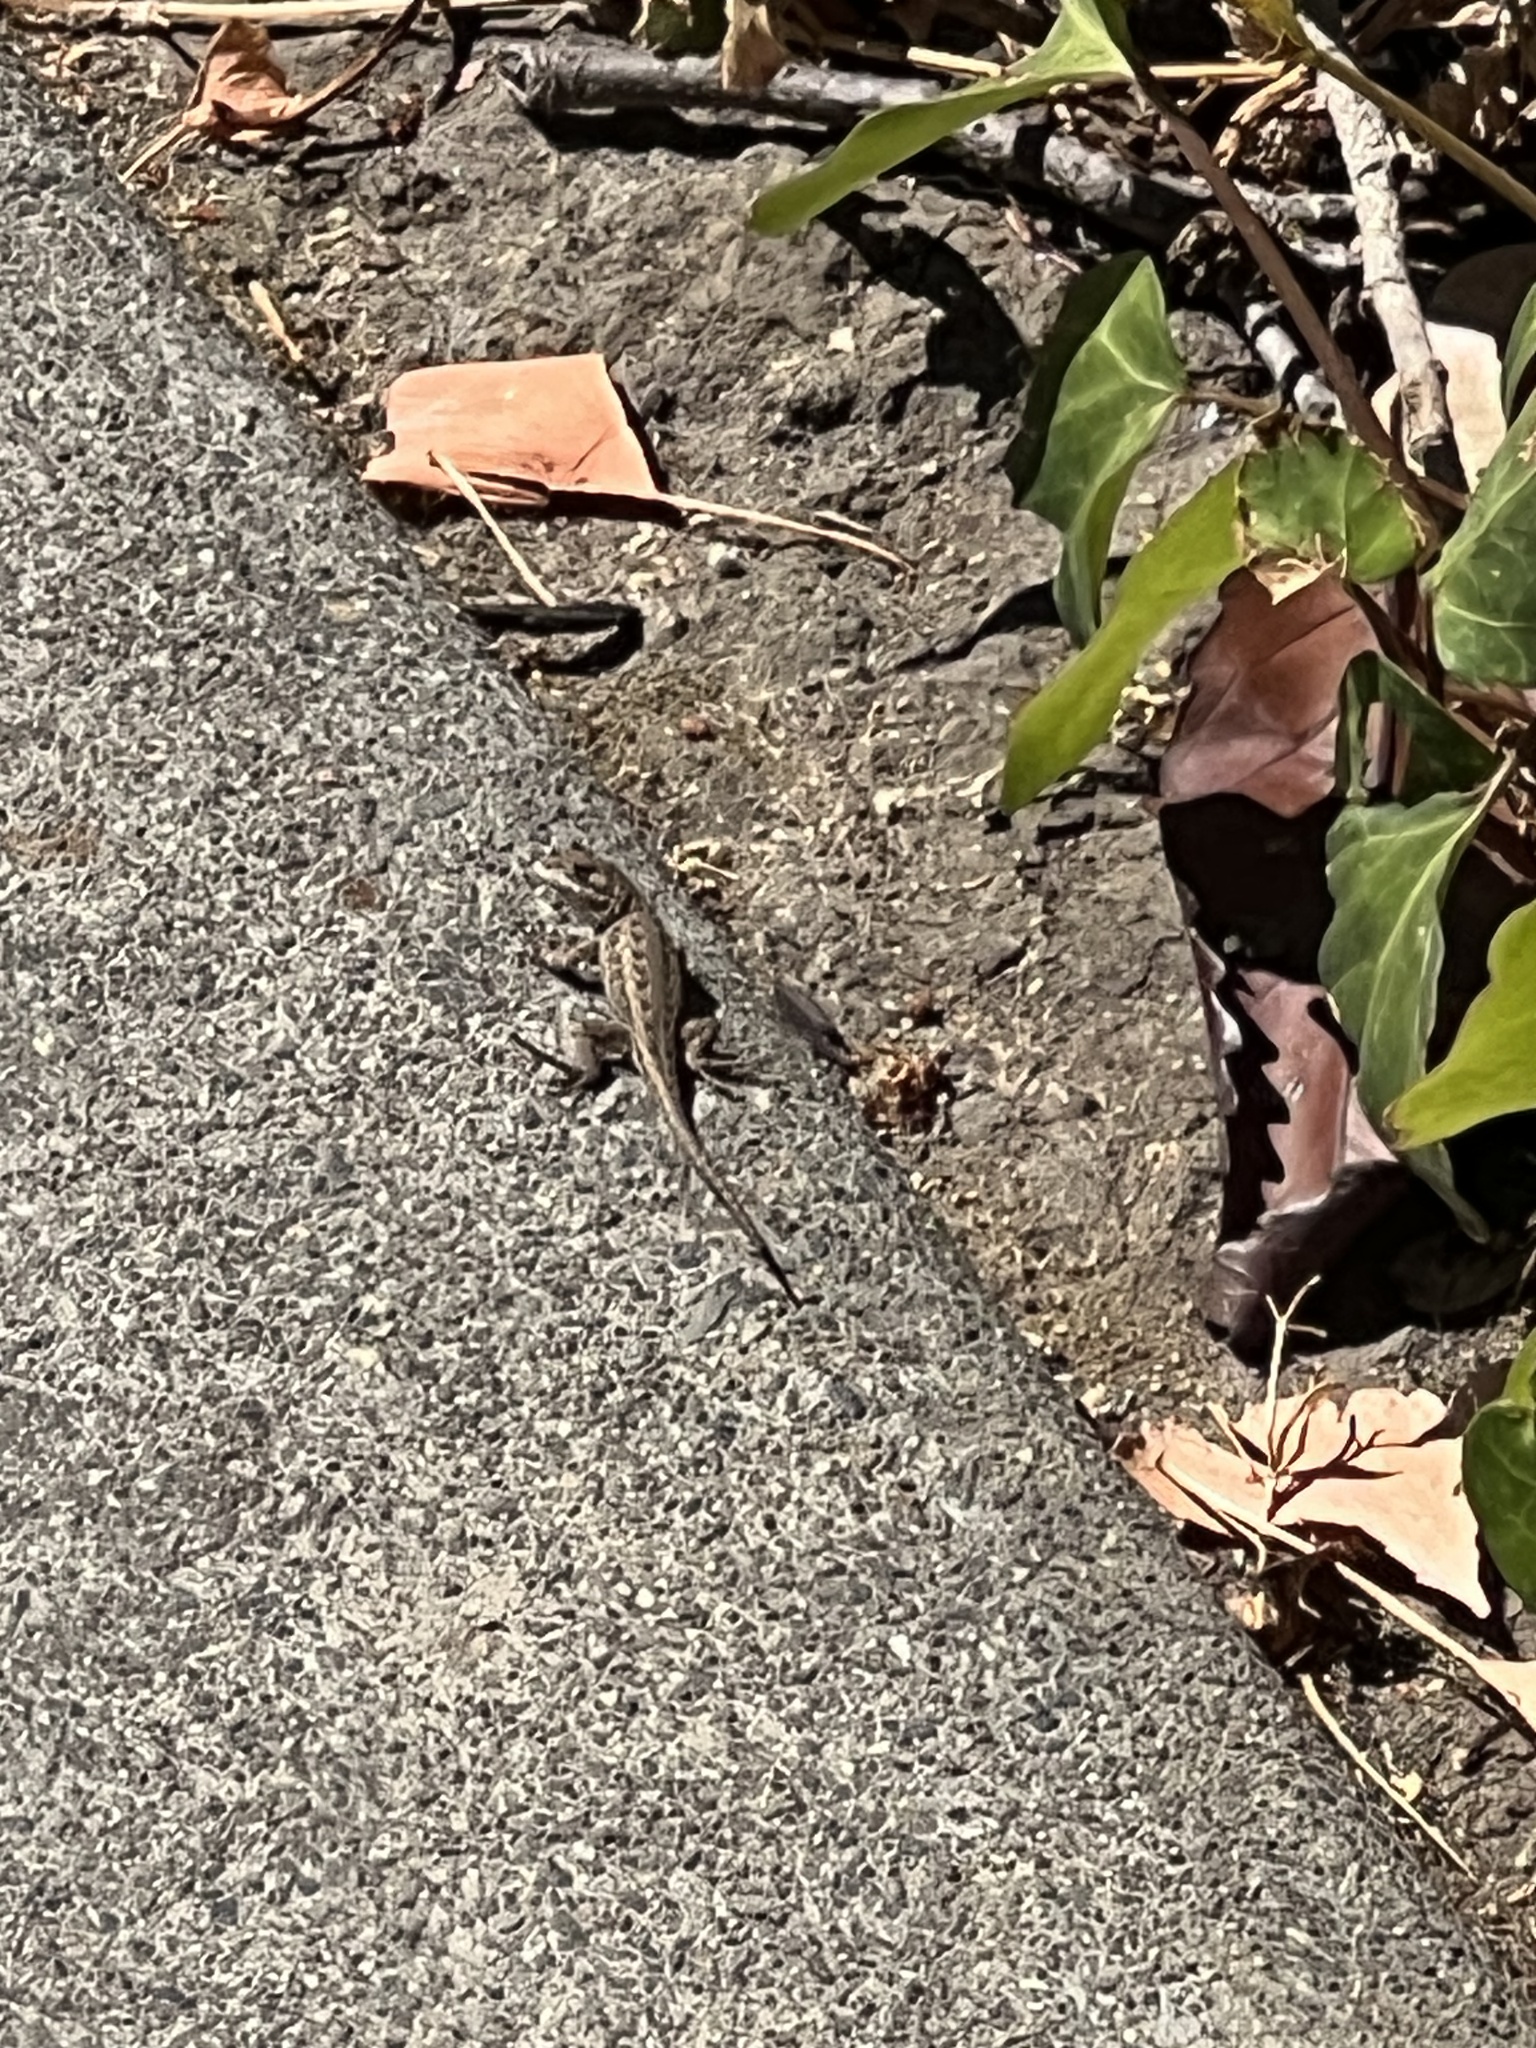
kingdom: Animalia
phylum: Chordata
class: Squamata
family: Phrynosomatidae
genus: Sceloporus
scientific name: Sceloporus occidentalis
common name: Western fence lizard
